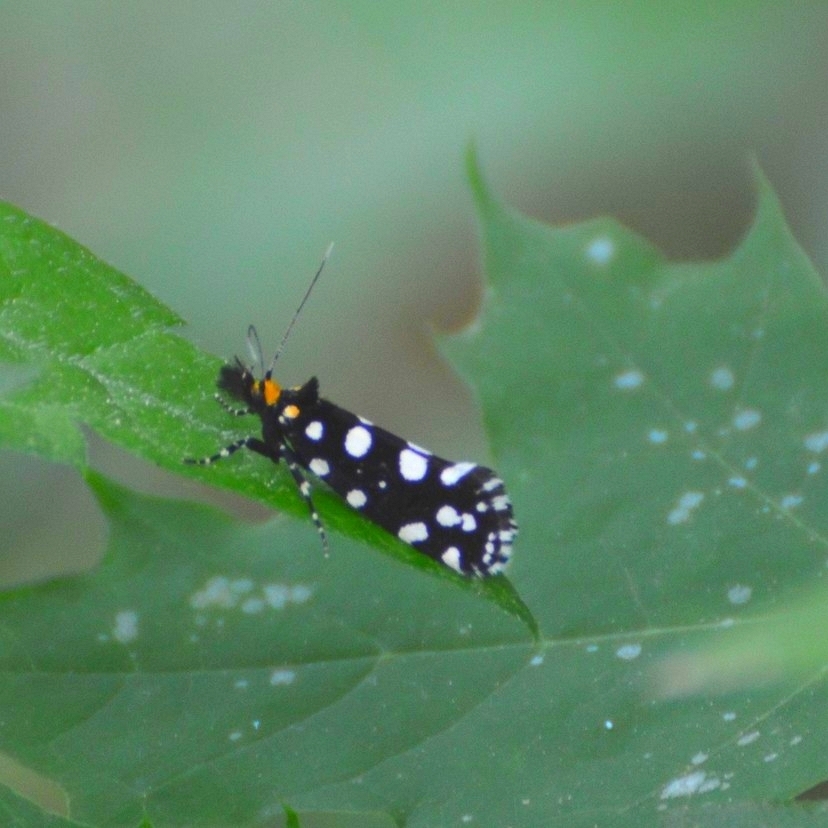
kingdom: Animalia
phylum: Arthropoda
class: Insecta
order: Lepidoptera
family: Tineidae
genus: Euplocamus
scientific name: Euplocamus anthracinalis
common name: Black clothes
